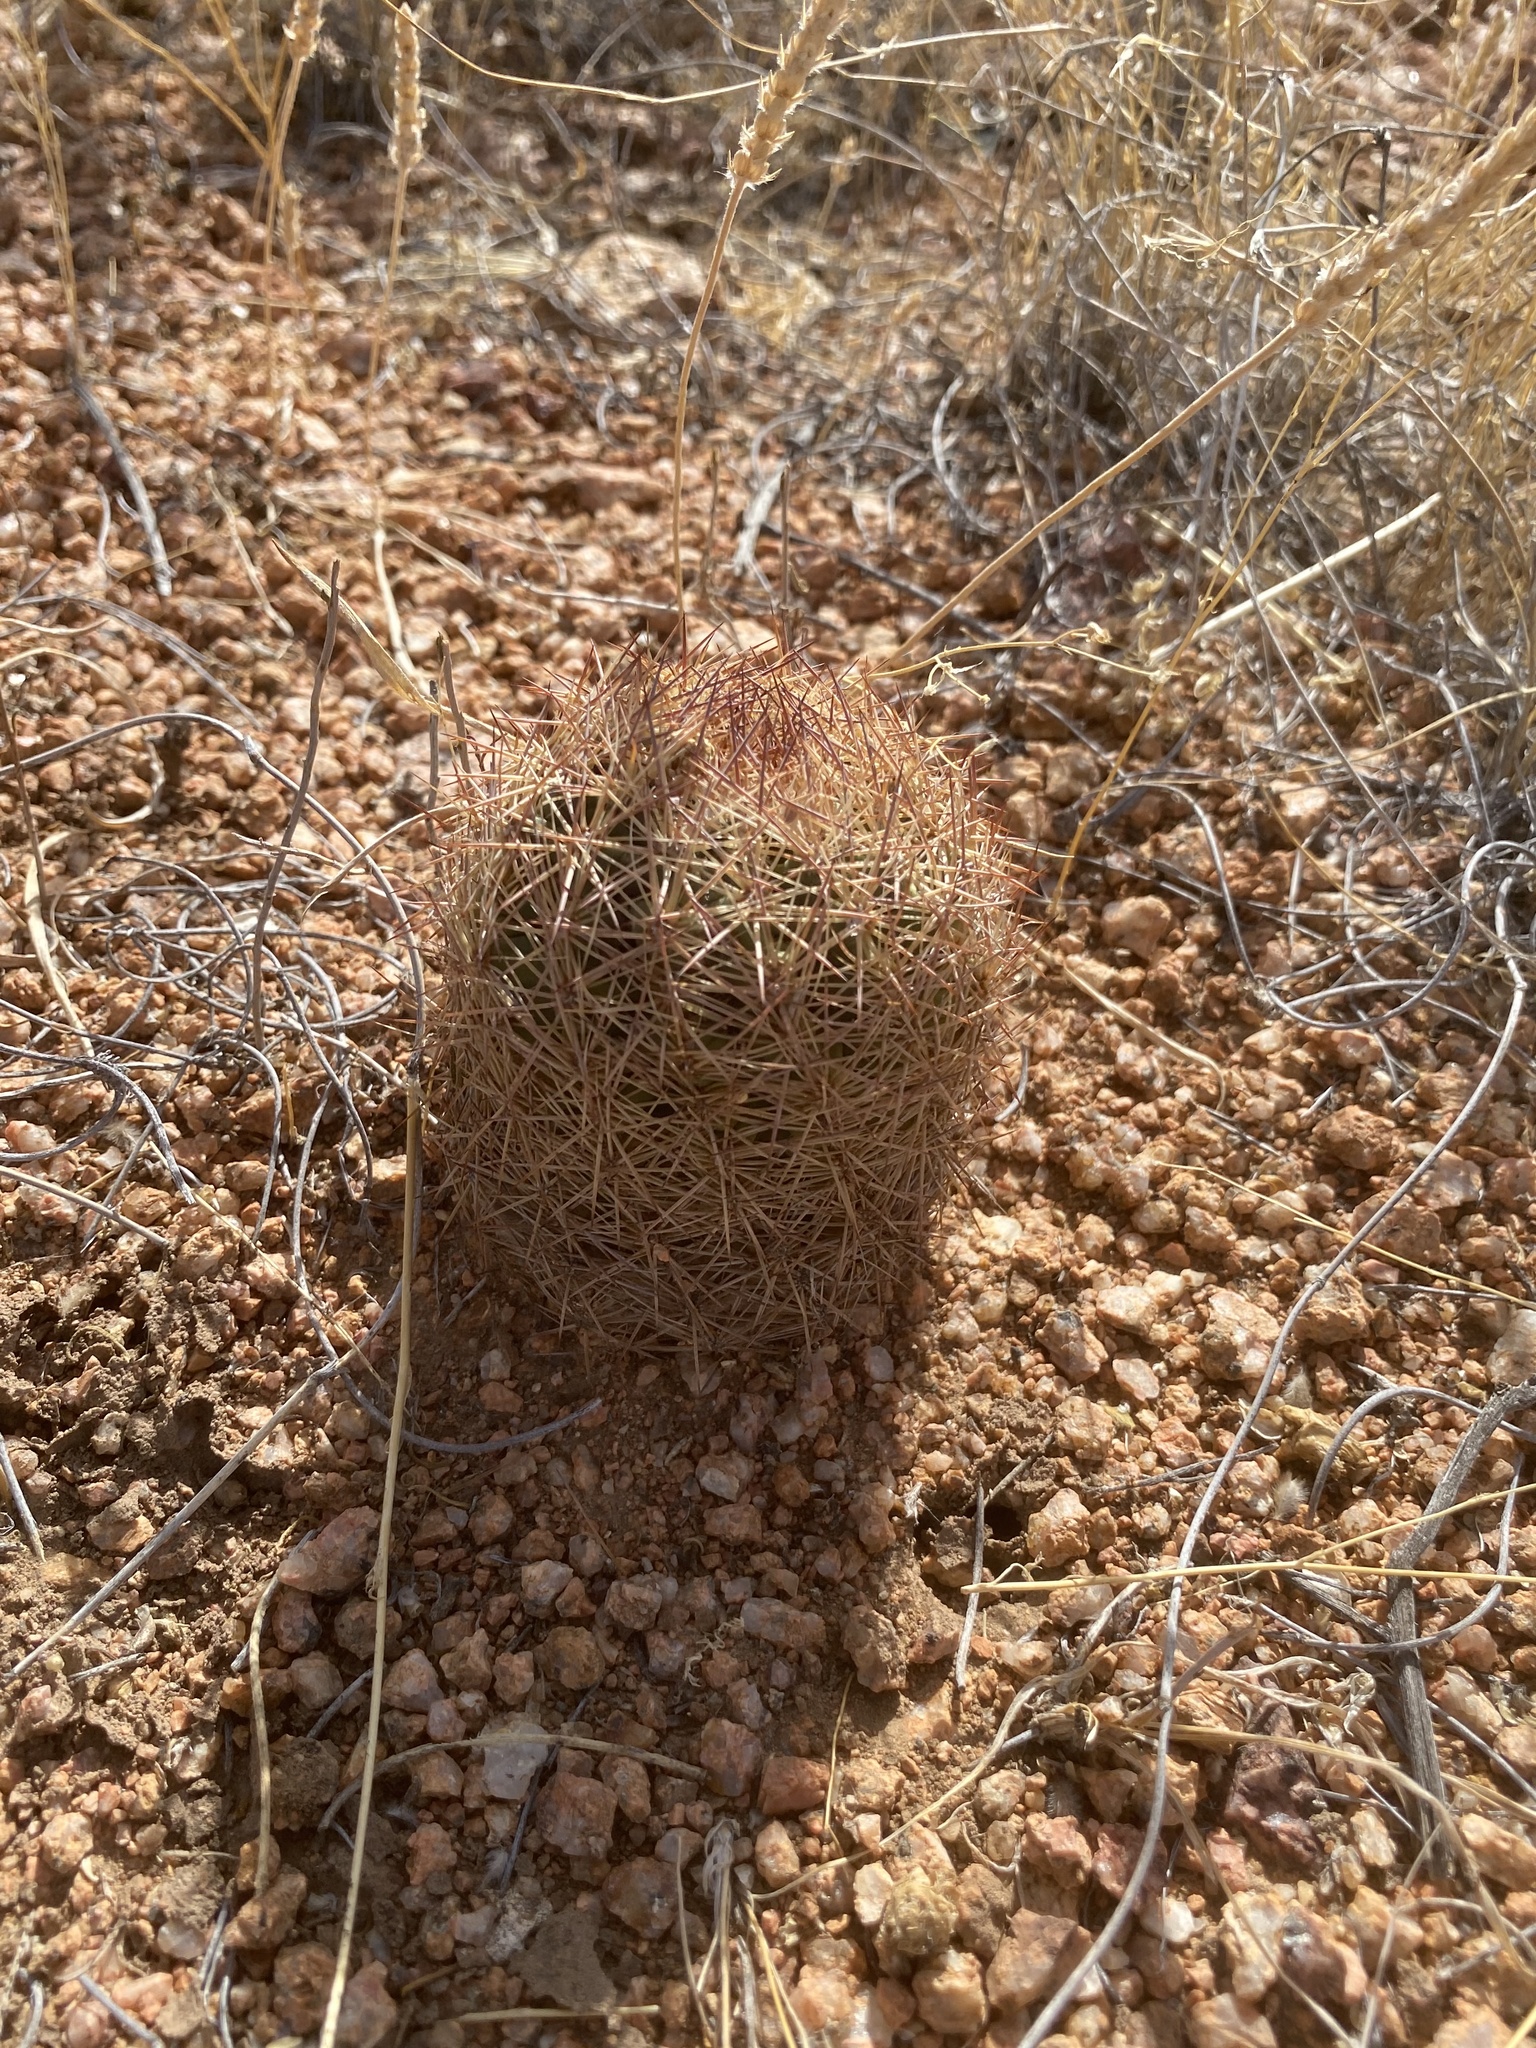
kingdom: Plantae
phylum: Tracheophyta
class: Magnoliopsida
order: Caryophyllales
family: Cactaceae
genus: Sclerocactus
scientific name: Sclerocactus intertextus
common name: White fish-hook cactus
